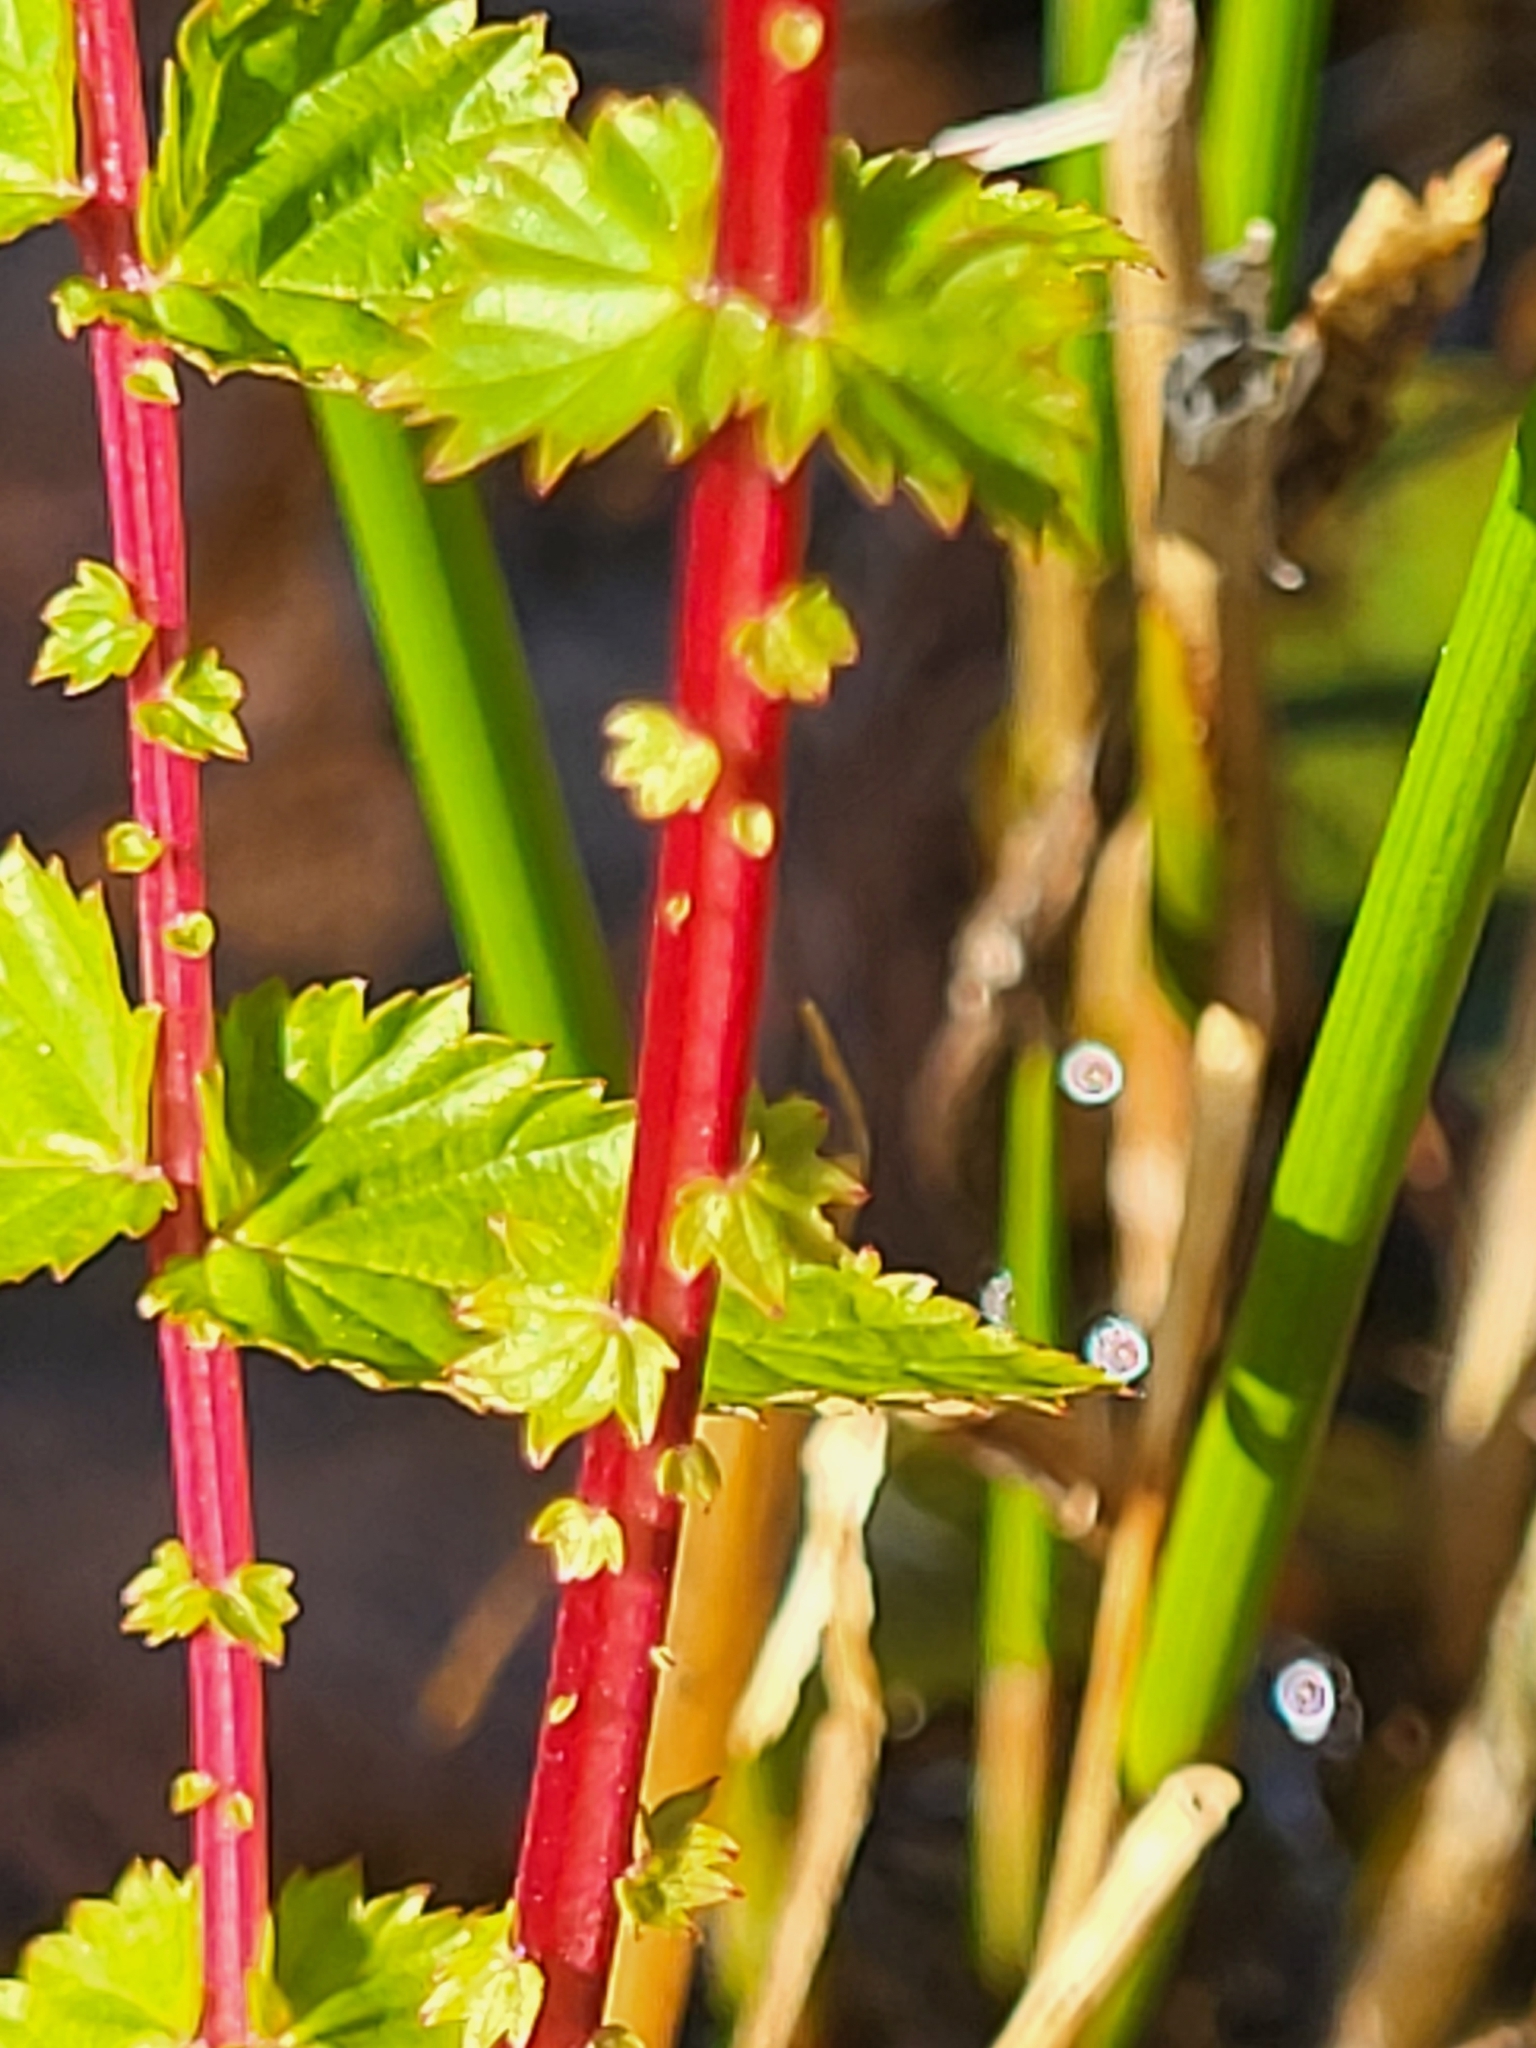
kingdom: Plantae
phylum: Tracheophyta
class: Magnoliopsida
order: Rosales
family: Rosaceae
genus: Filipendula
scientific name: Filipendula ulmaria
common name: Meadowsweet
